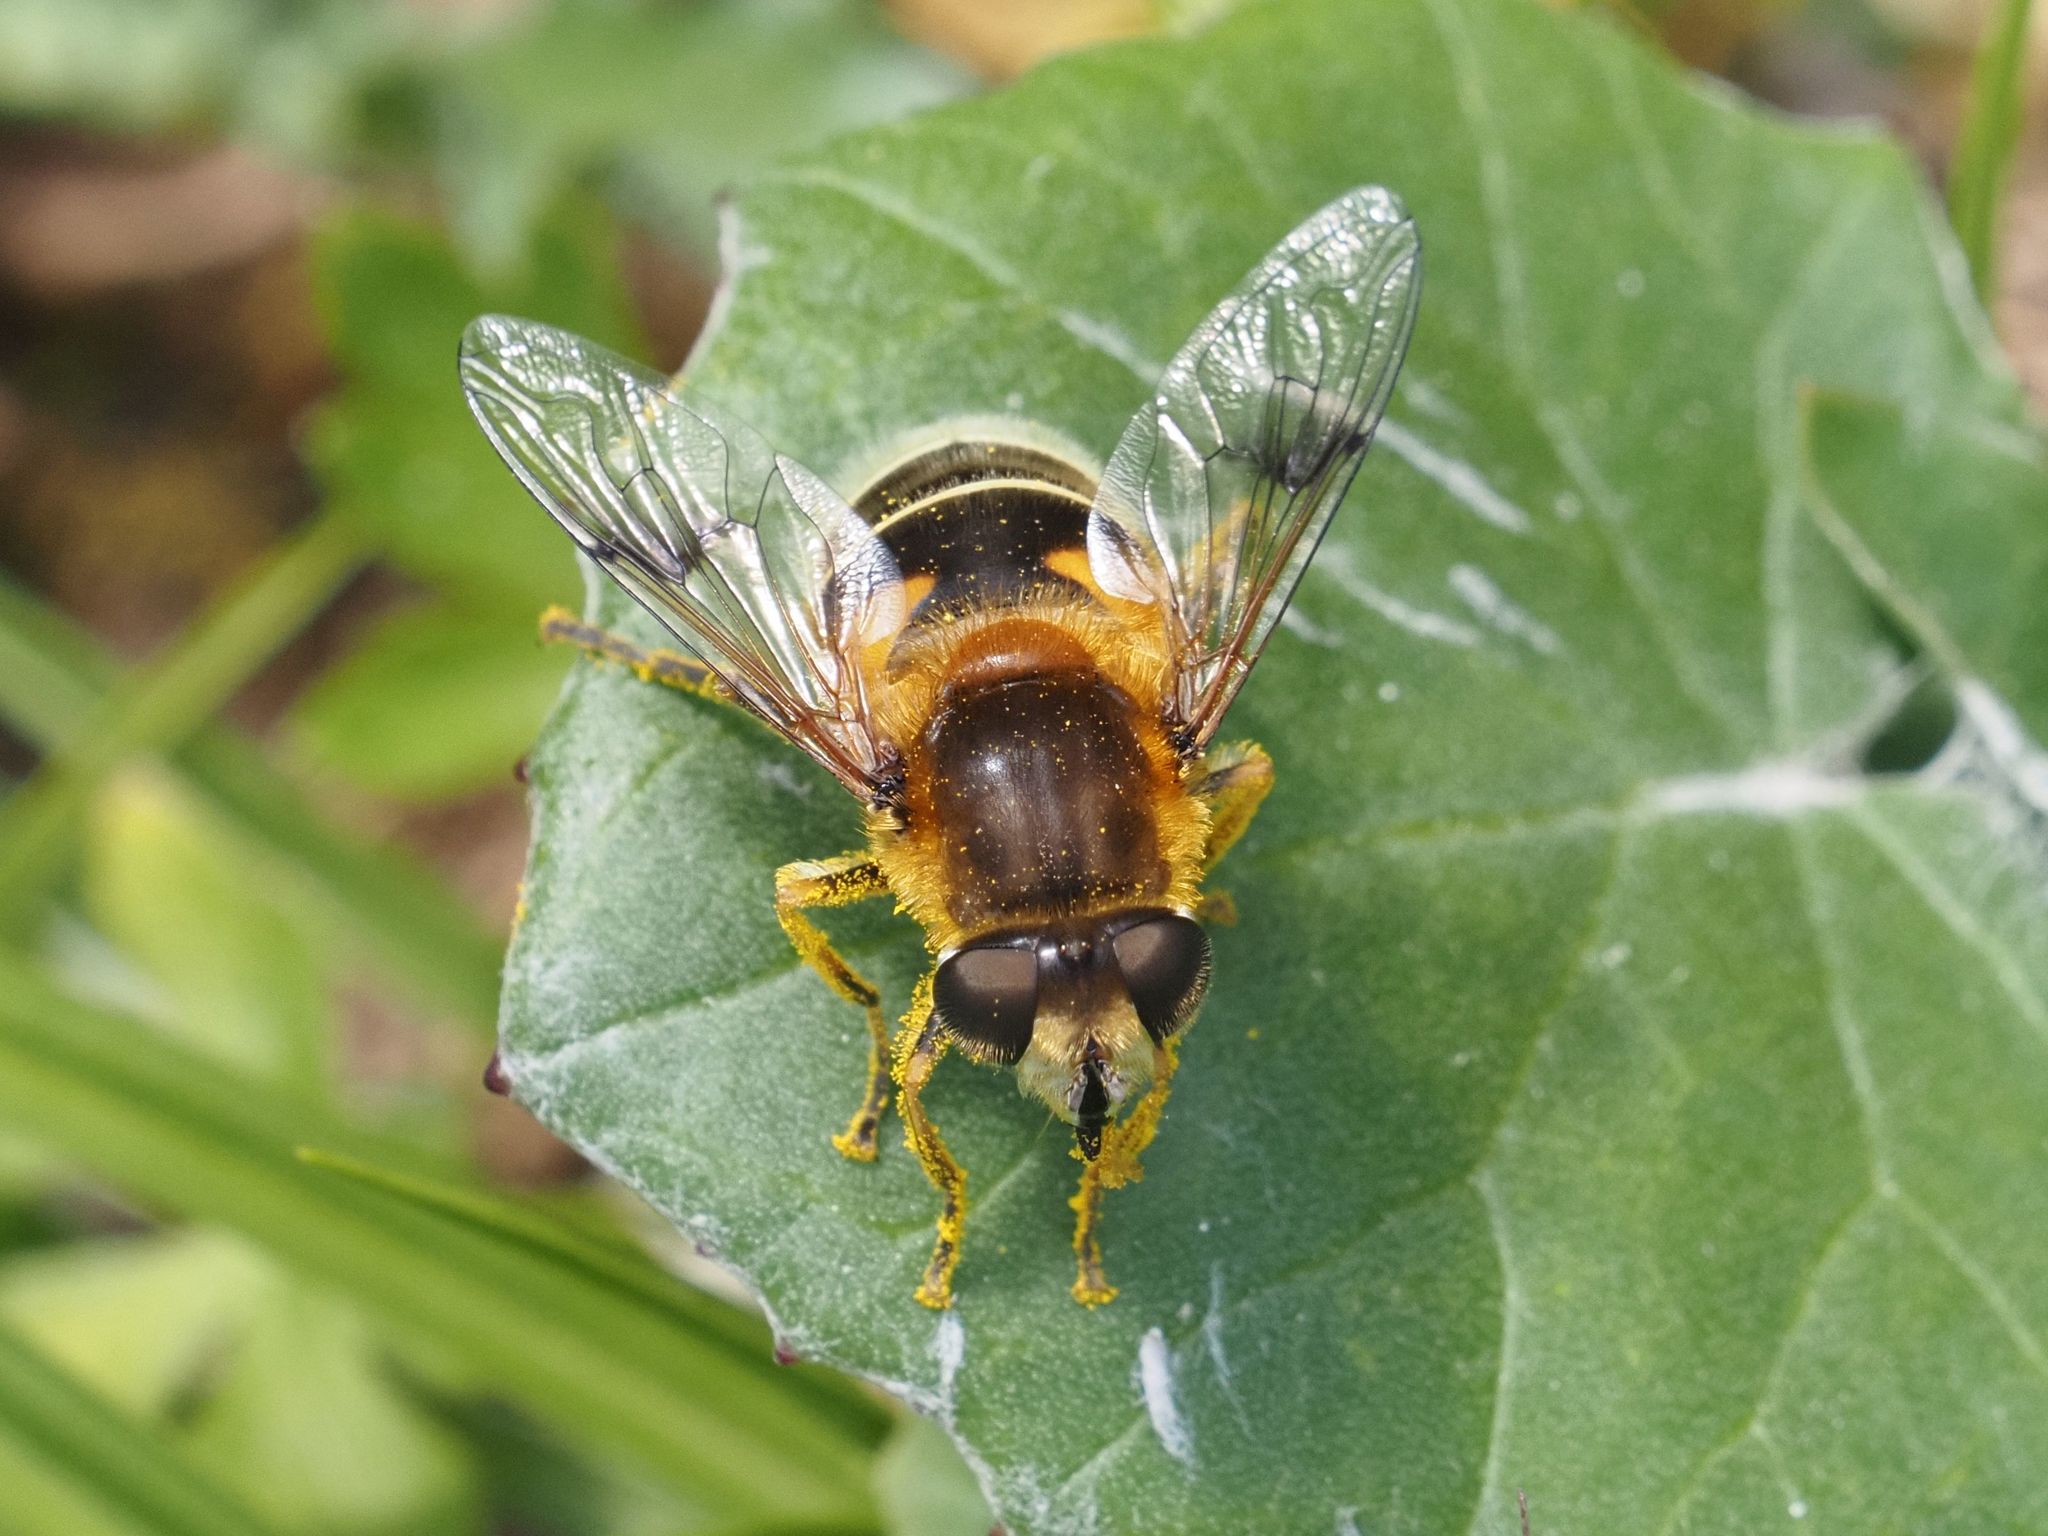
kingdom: Animalia
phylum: Arthropoda
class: Insecta
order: Diptera
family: Syrphidae
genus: Eristalis
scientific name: Eristalis jugorum
